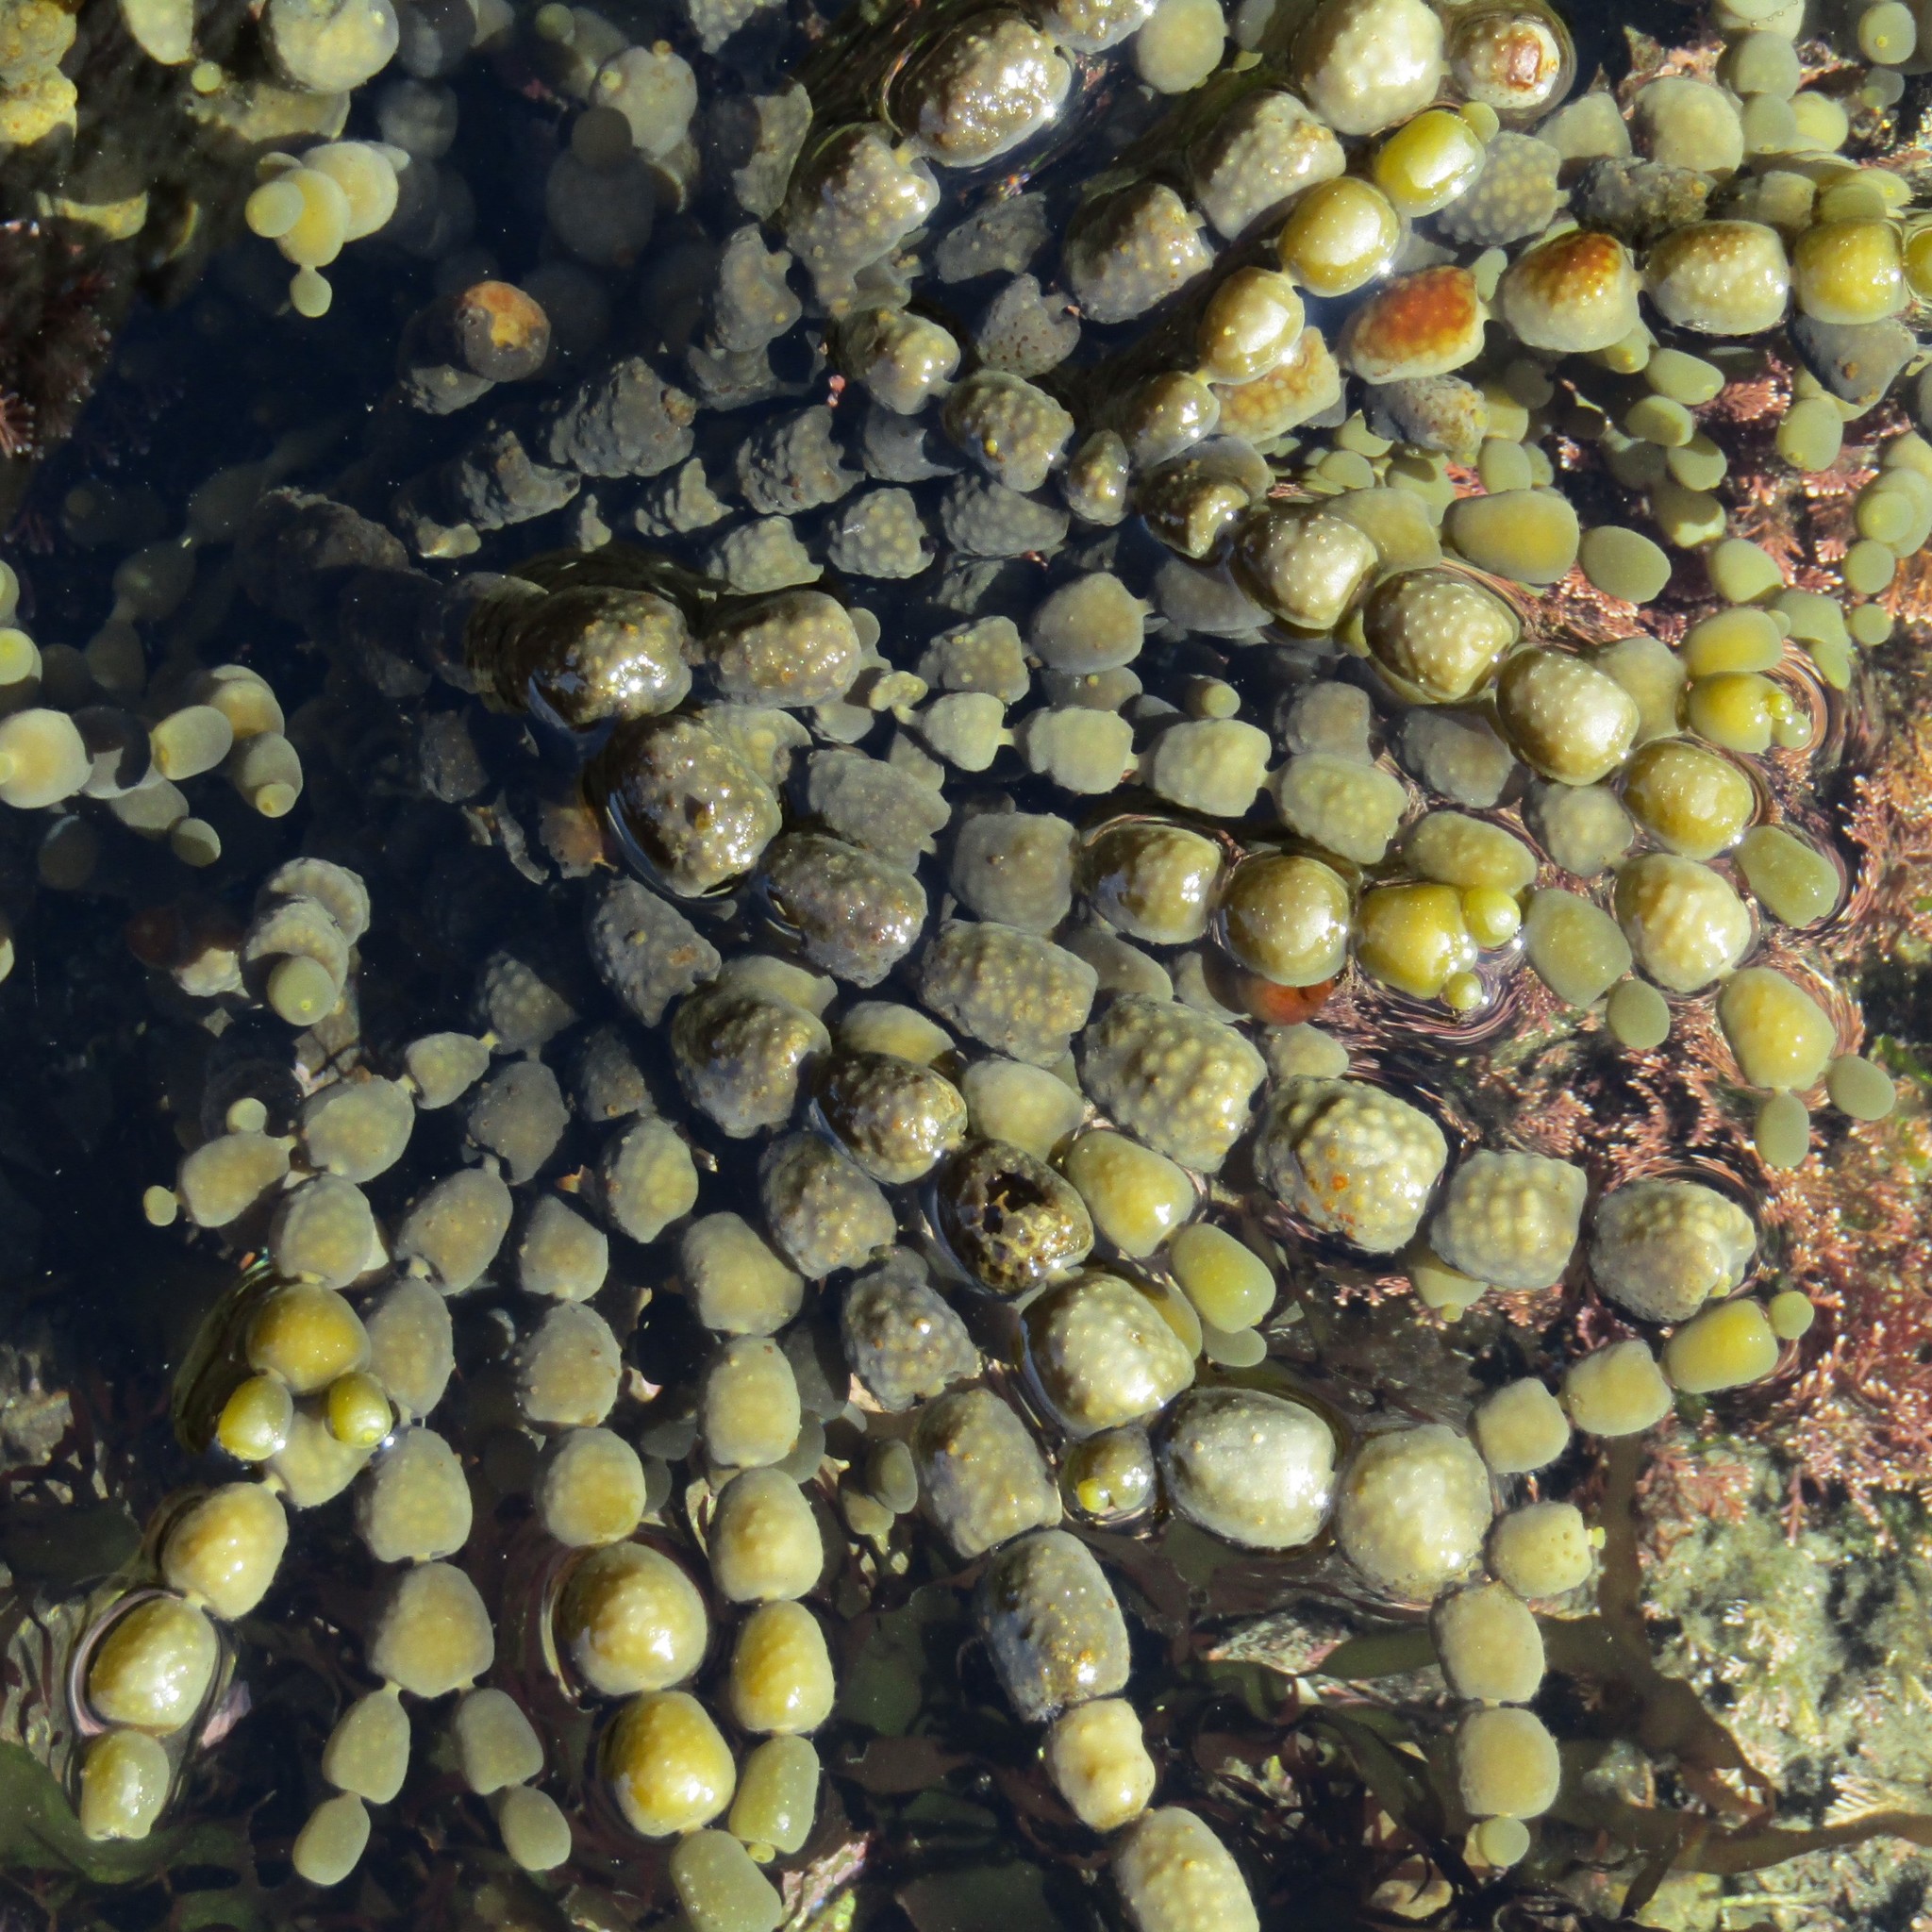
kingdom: Chromista
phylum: Ochrophyta
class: Phaeophyceae
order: Fucales
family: Hormosiraceae
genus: Hormosira
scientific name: Hormosira banksii
